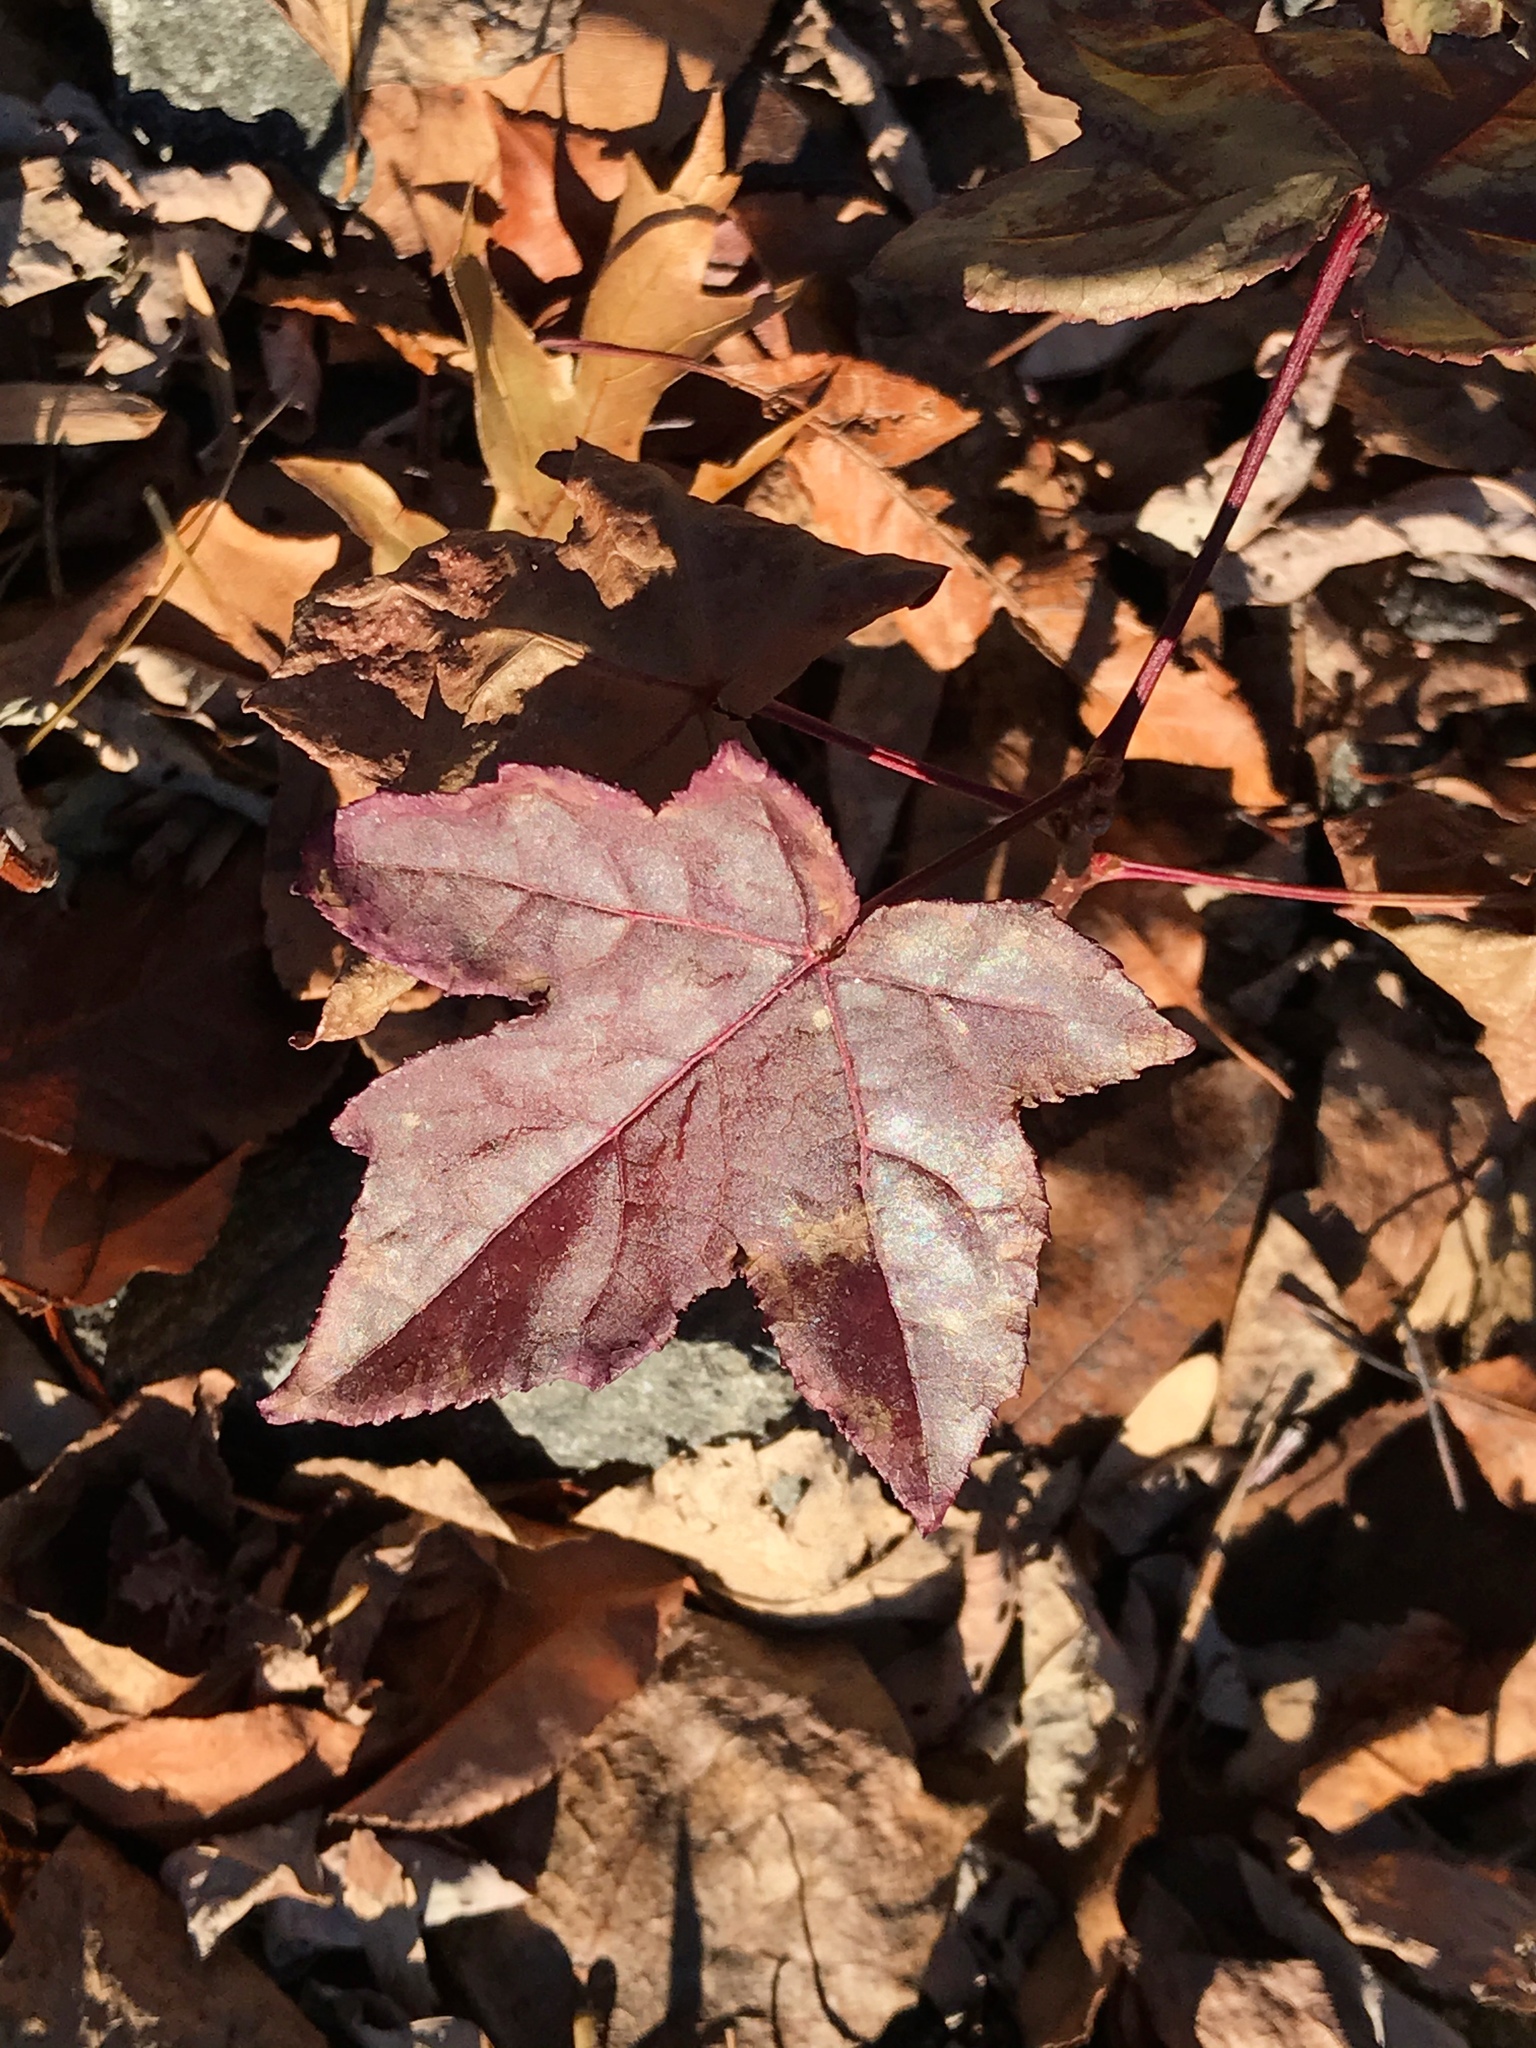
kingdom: Plantae
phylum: Tracheophyta
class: Magnoliopsida
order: Saxifragales
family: Altingiaceae
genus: Liquidambar
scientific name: Liquidambar styraciflua
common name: Sweet gum
